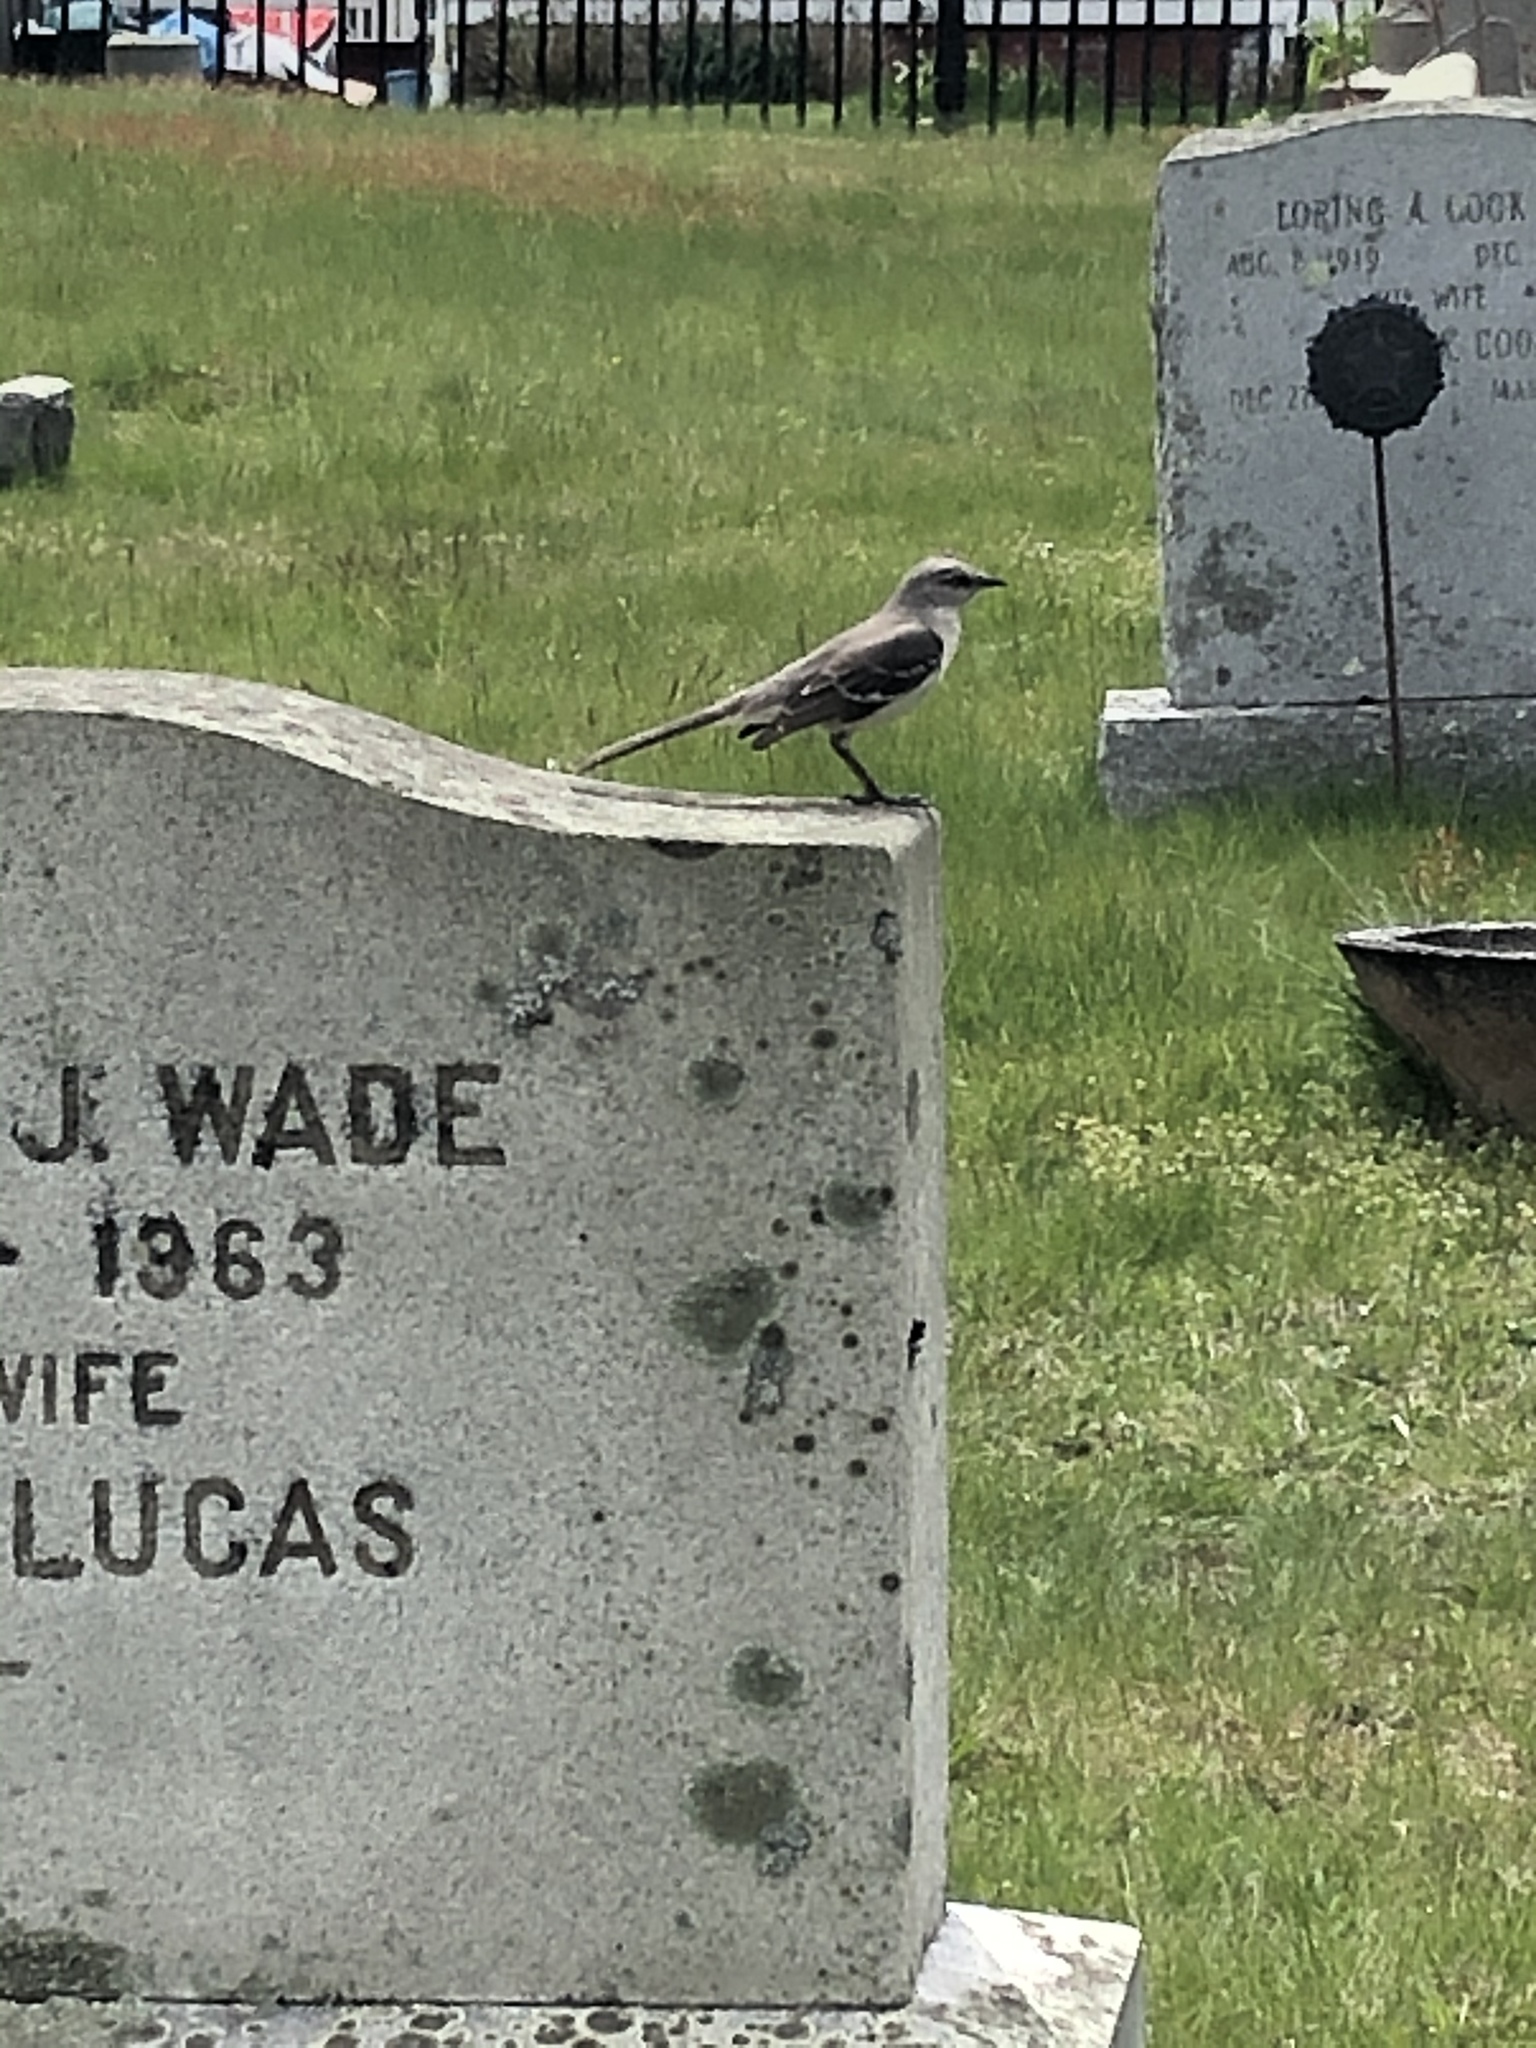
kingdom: Animalia
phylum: Chordata
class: Aves
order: Passeriformes
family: Mimidae
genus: Mimus
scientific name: Mimus polyglottos
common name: Northern mockingbird
